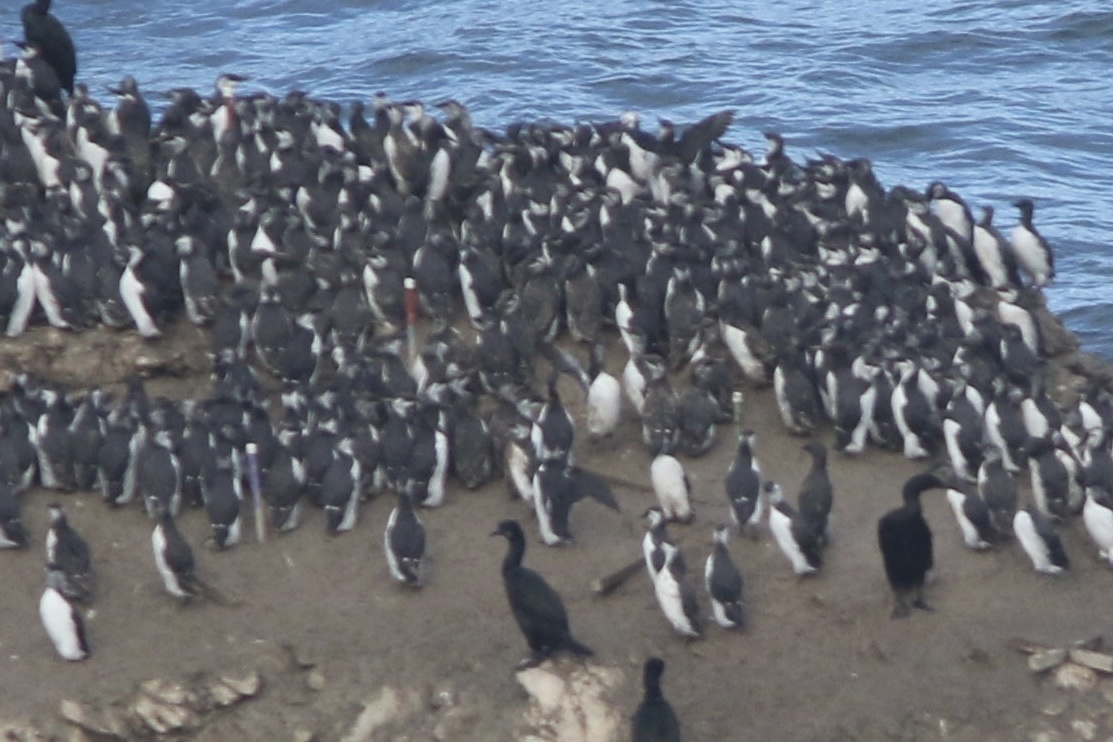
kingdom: Animalia
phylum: Chordata
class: Aves
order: Charadriiformes
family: Alcidae
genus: Uria
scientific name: Uria aalge
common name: Common murre
